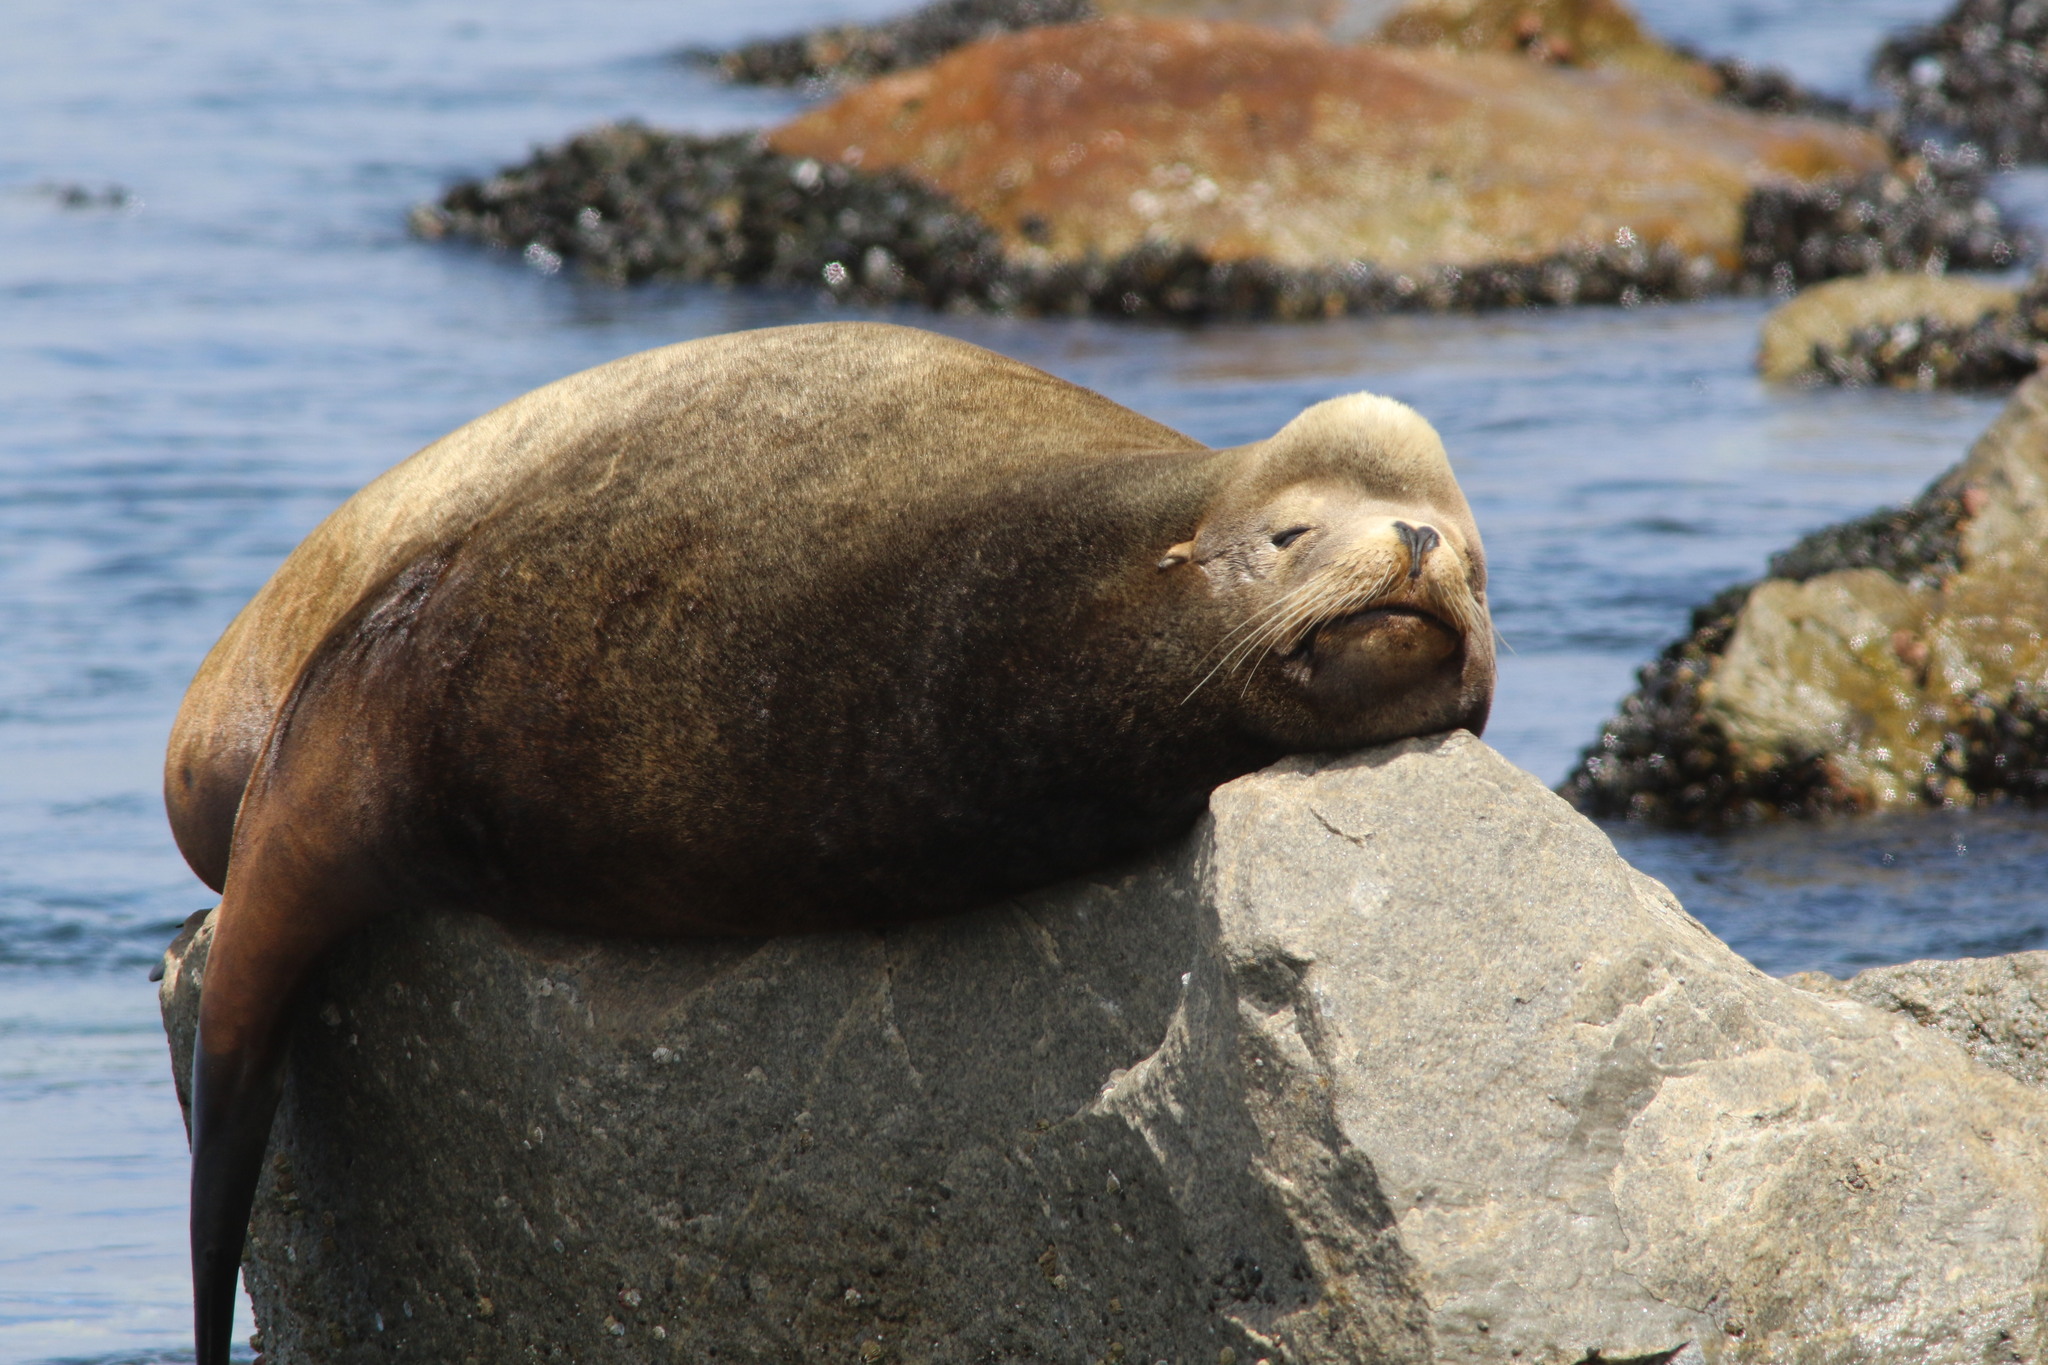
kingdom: Animalia
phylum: Chordata
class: Mammalia
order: Carnivora
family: Otariidae
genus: Zalophus
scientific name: Zalophus californianus
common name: California sea lion
